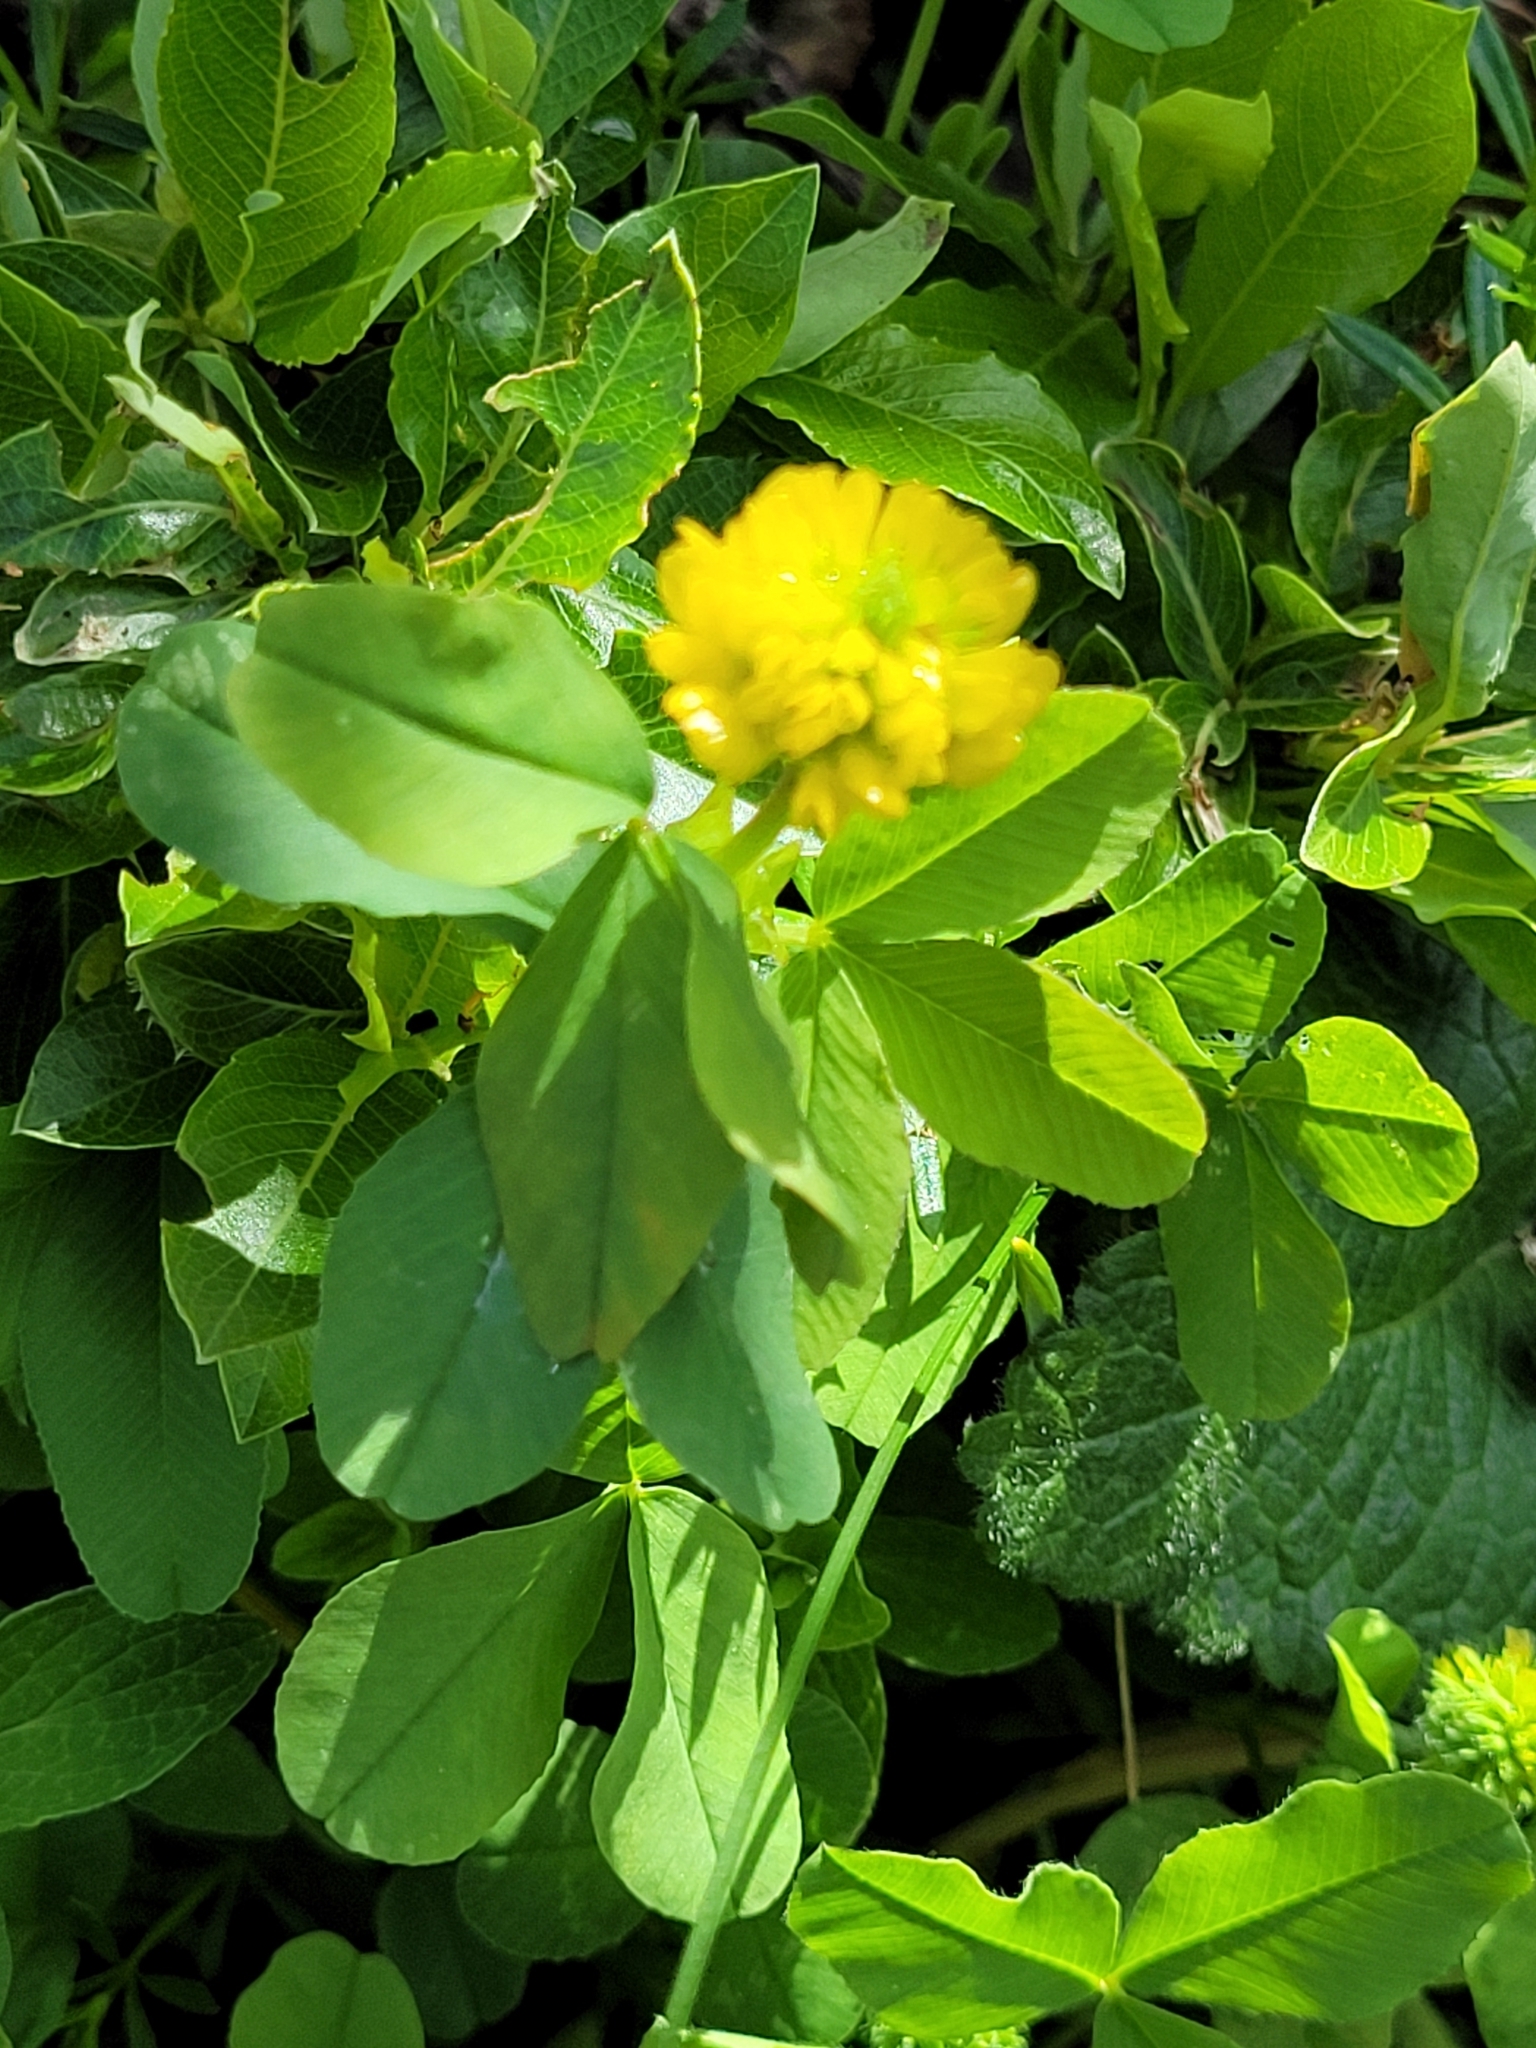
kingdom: Plantae
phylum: Tracheophyta
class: Magnoliopsida
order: Fabales
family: Fabaceae
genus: Trifolium
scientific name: Trifolium badium
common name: Brown clover
